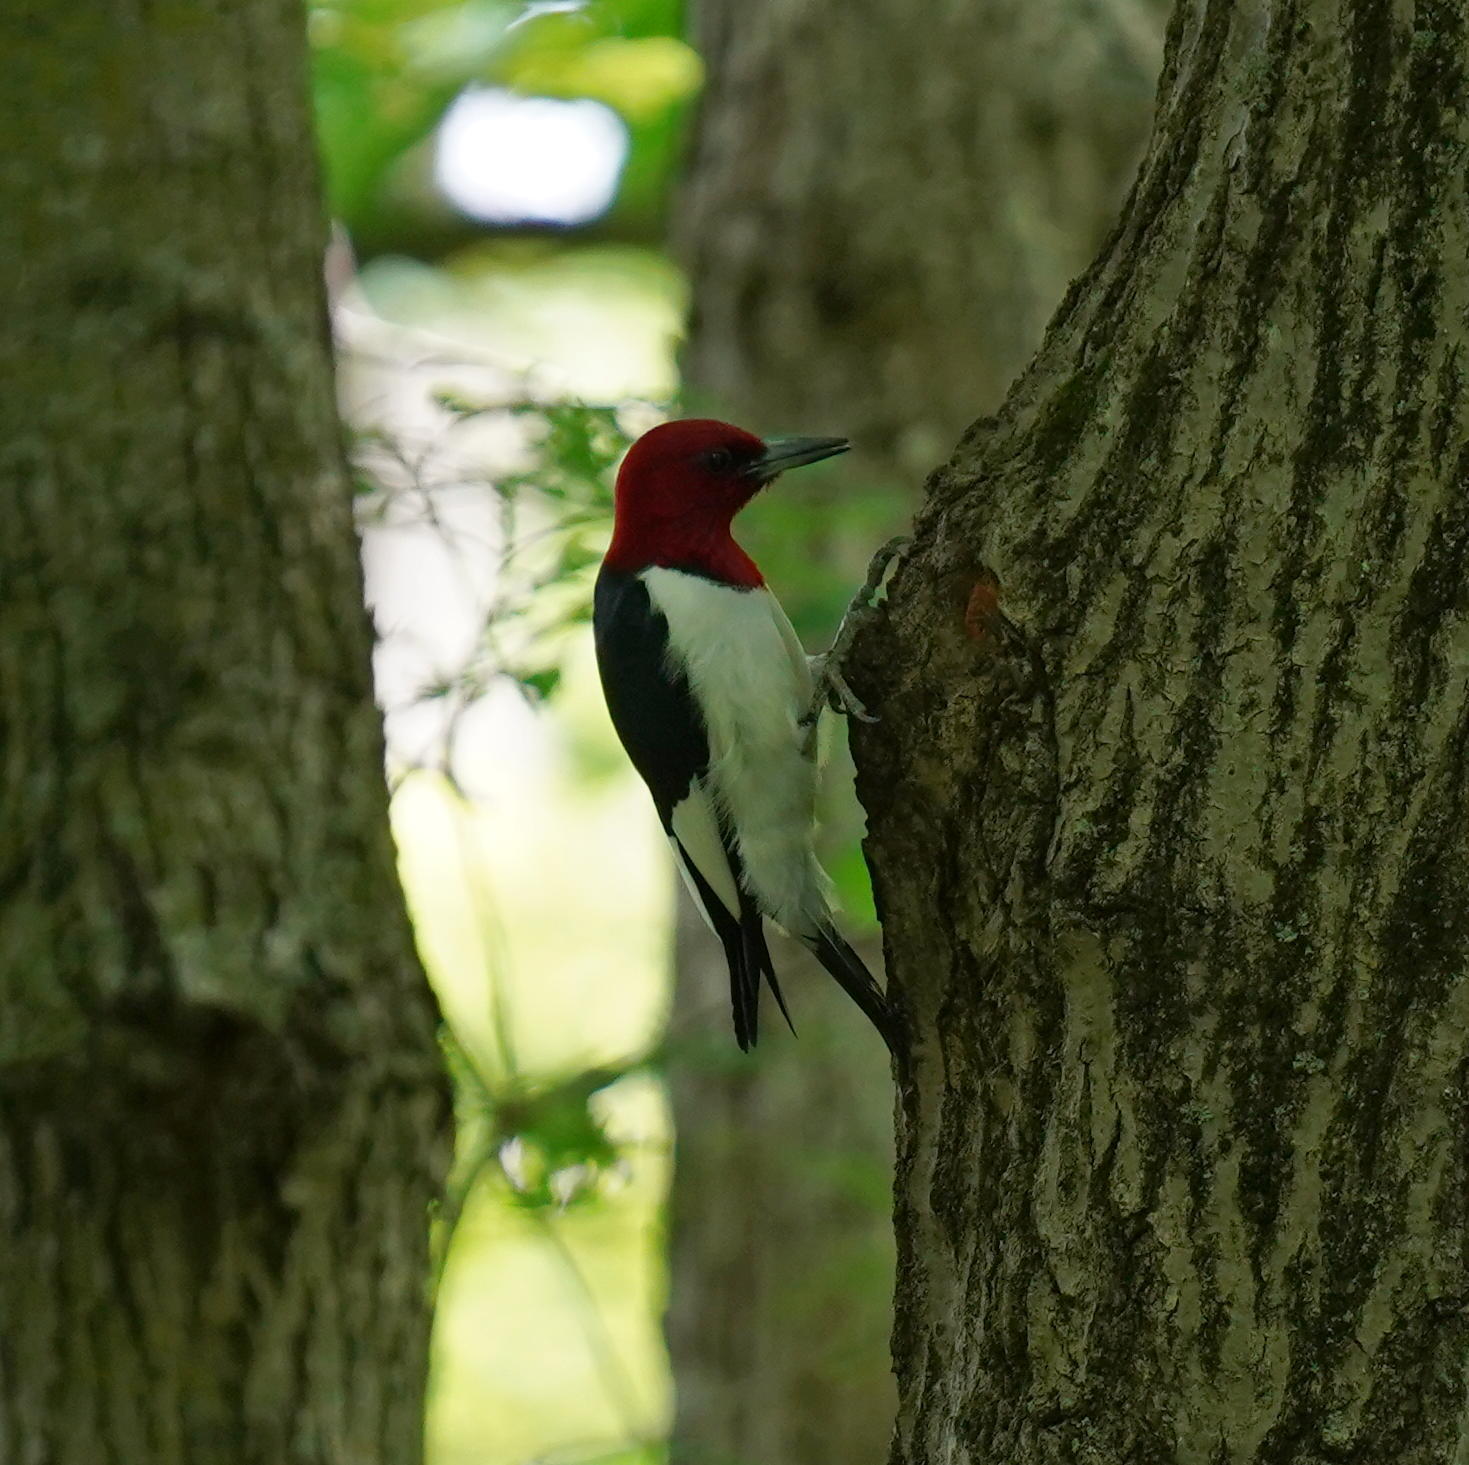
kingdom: Animalia
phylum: Chordata
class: Aves
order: Piciformes
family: Picidae
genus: Melanerpes
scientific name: Melanerpes erythrocephalus
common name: Red-headed woodpecker
